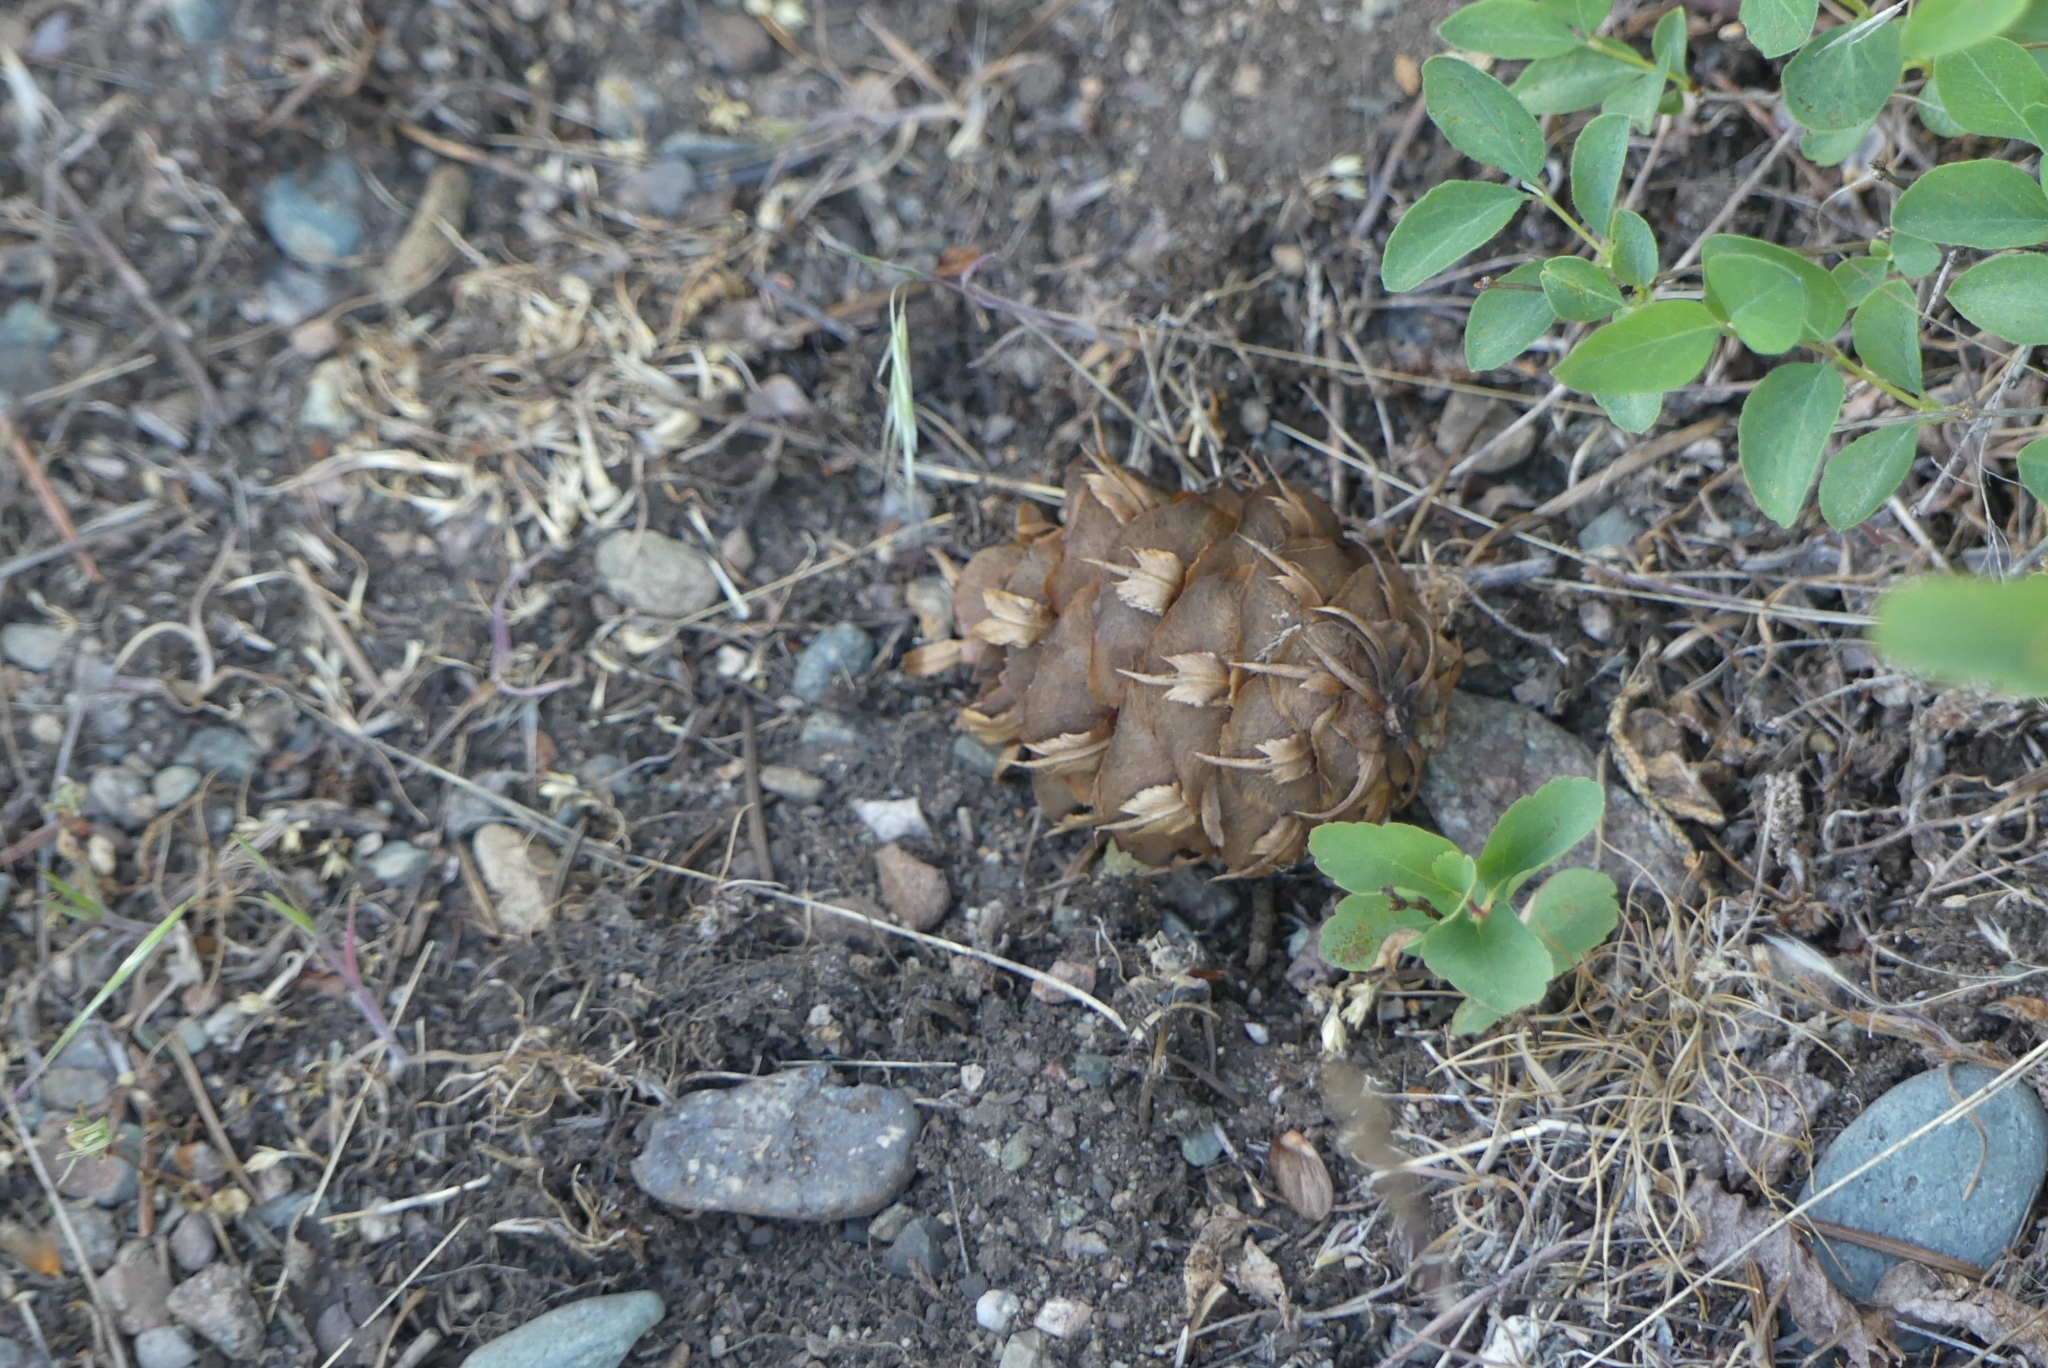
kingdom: Plantae
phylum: Tracheophyta
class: Pinopsida
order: Pinales
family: Pinaceae
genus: Pseudotsuga
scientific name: Pseudotsuga menziesii
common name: Douglas fir
